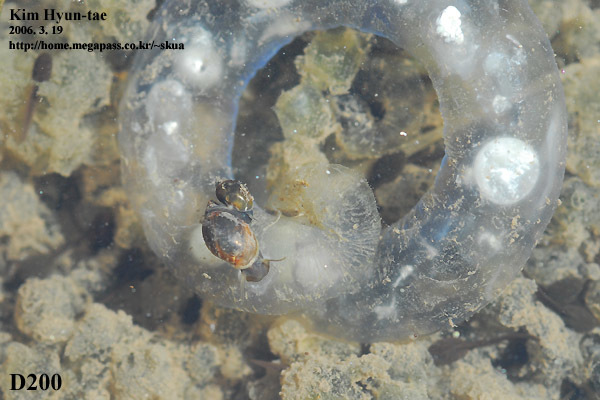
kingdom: Animalia
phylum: Chordata
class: Amphibia
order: Caudata
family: Hynobiidae
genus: Hynobius
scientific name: Hynobius leechii
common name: Gensan salamander
